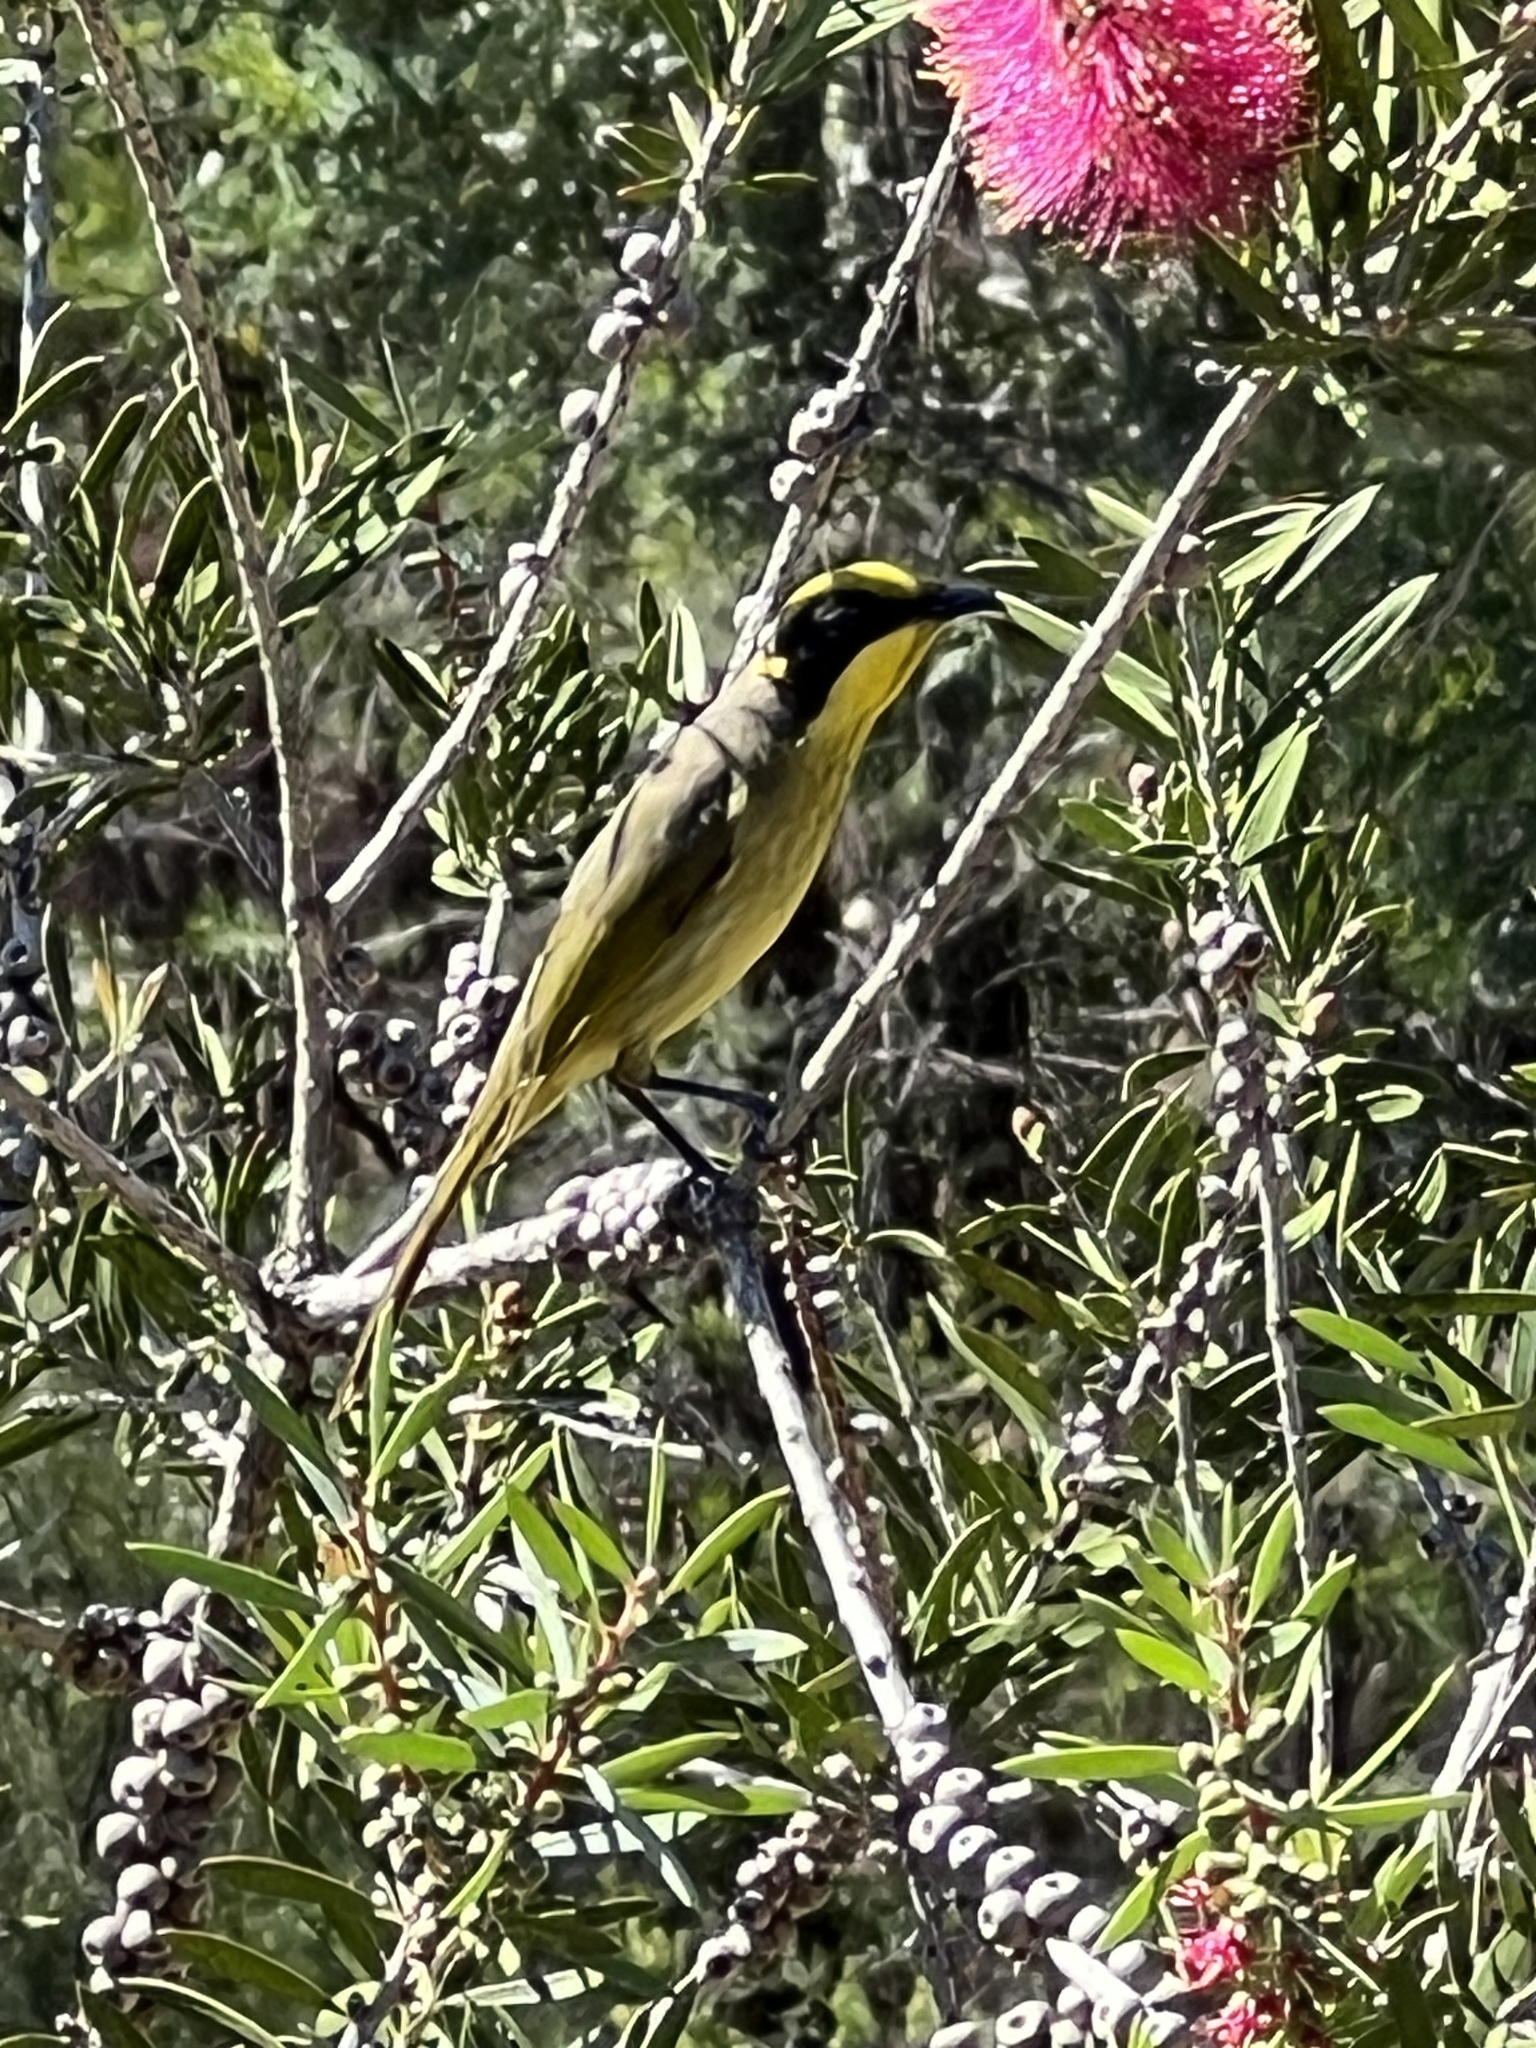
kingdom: Animalia
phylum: Chordata
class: Aves
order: Passeriformes
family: Meliphagidae
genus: Lichenostomus
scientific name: Lichenostomus melanops
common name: Yellow-tufted honeyeater
